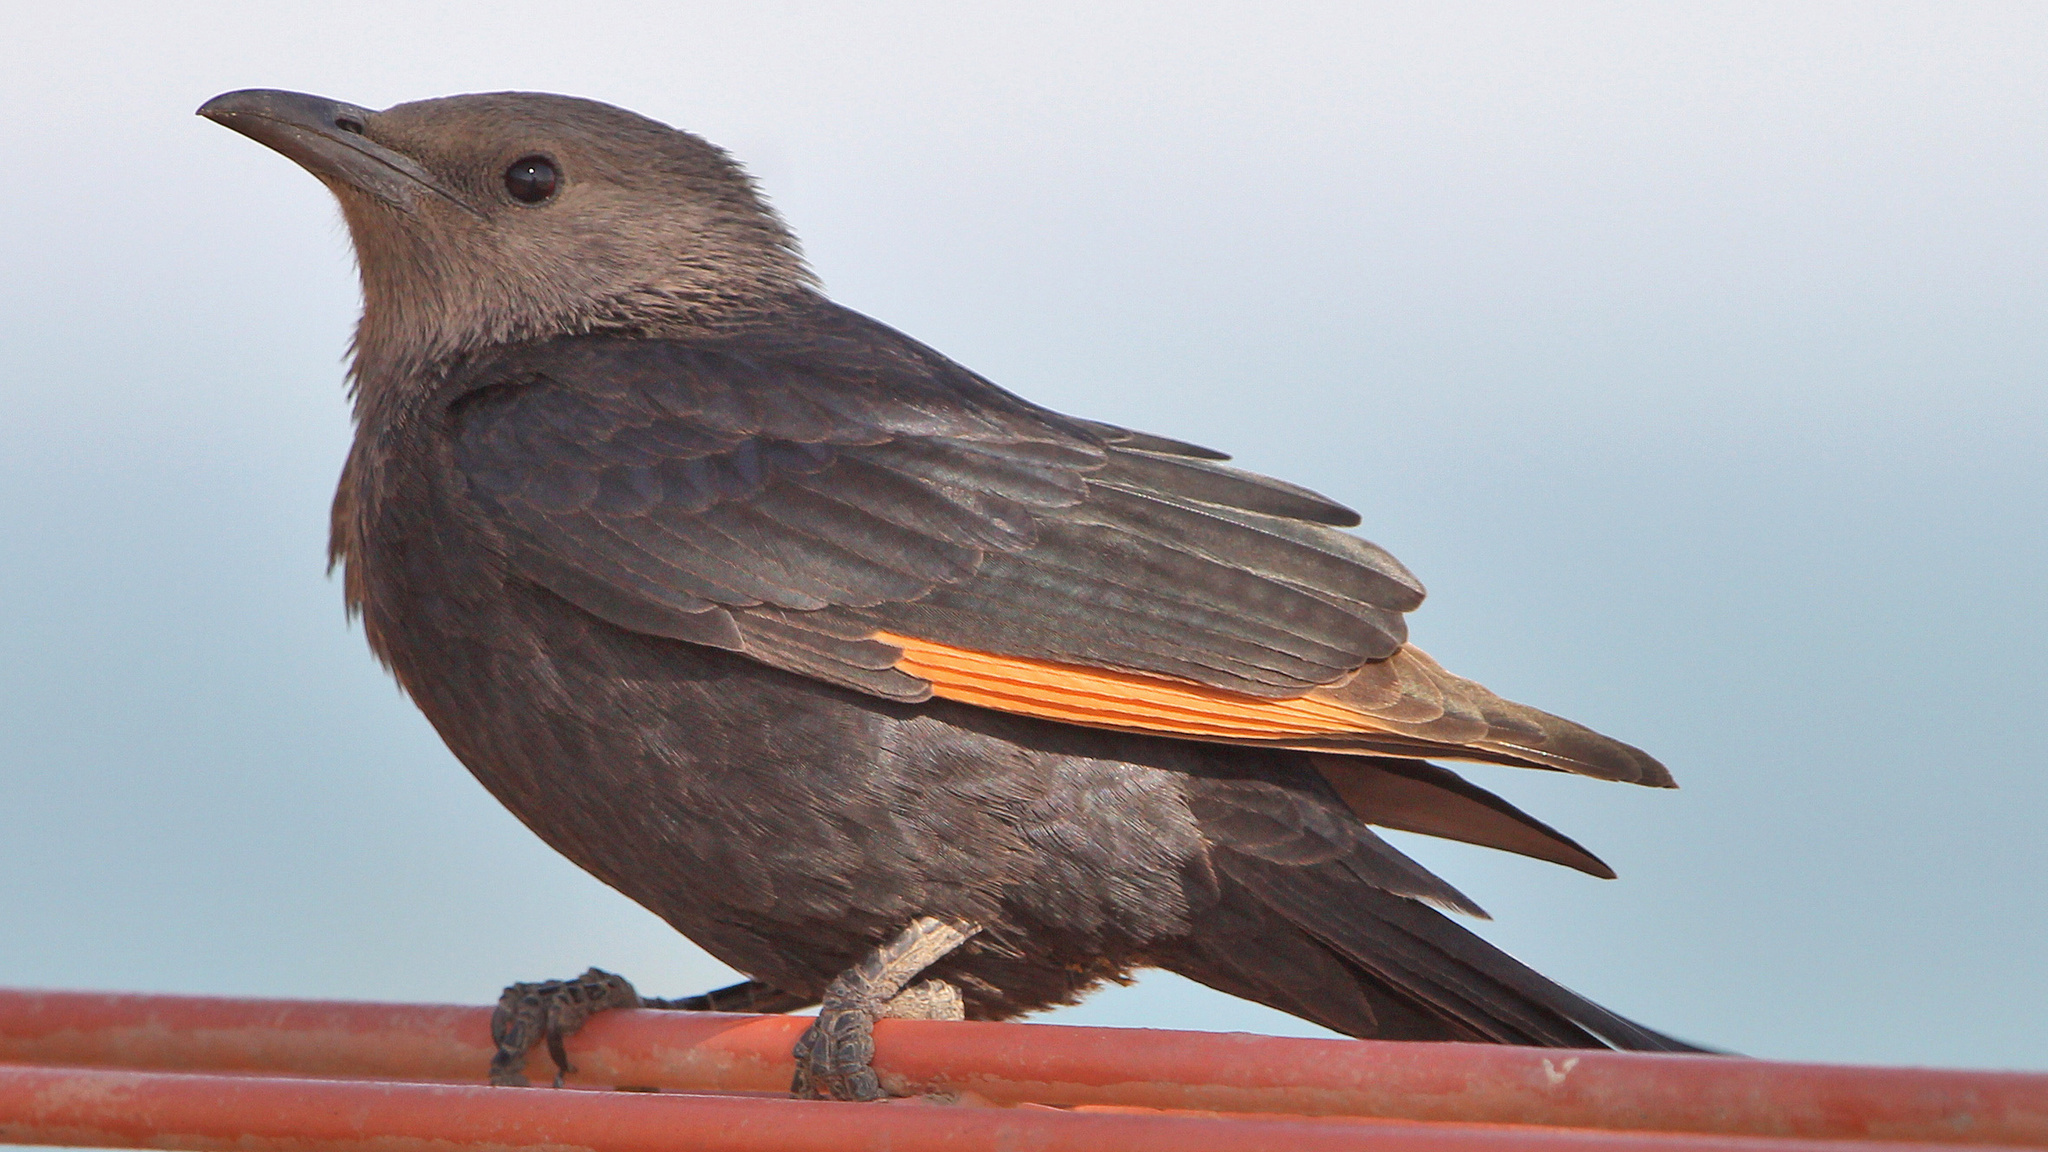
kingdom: Animalia
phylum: Chordata
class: Aves
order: Passeriformes
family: Sturnidae
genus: Onychognathus
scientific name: Onychognathus tristramii
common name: Tristram's starling
